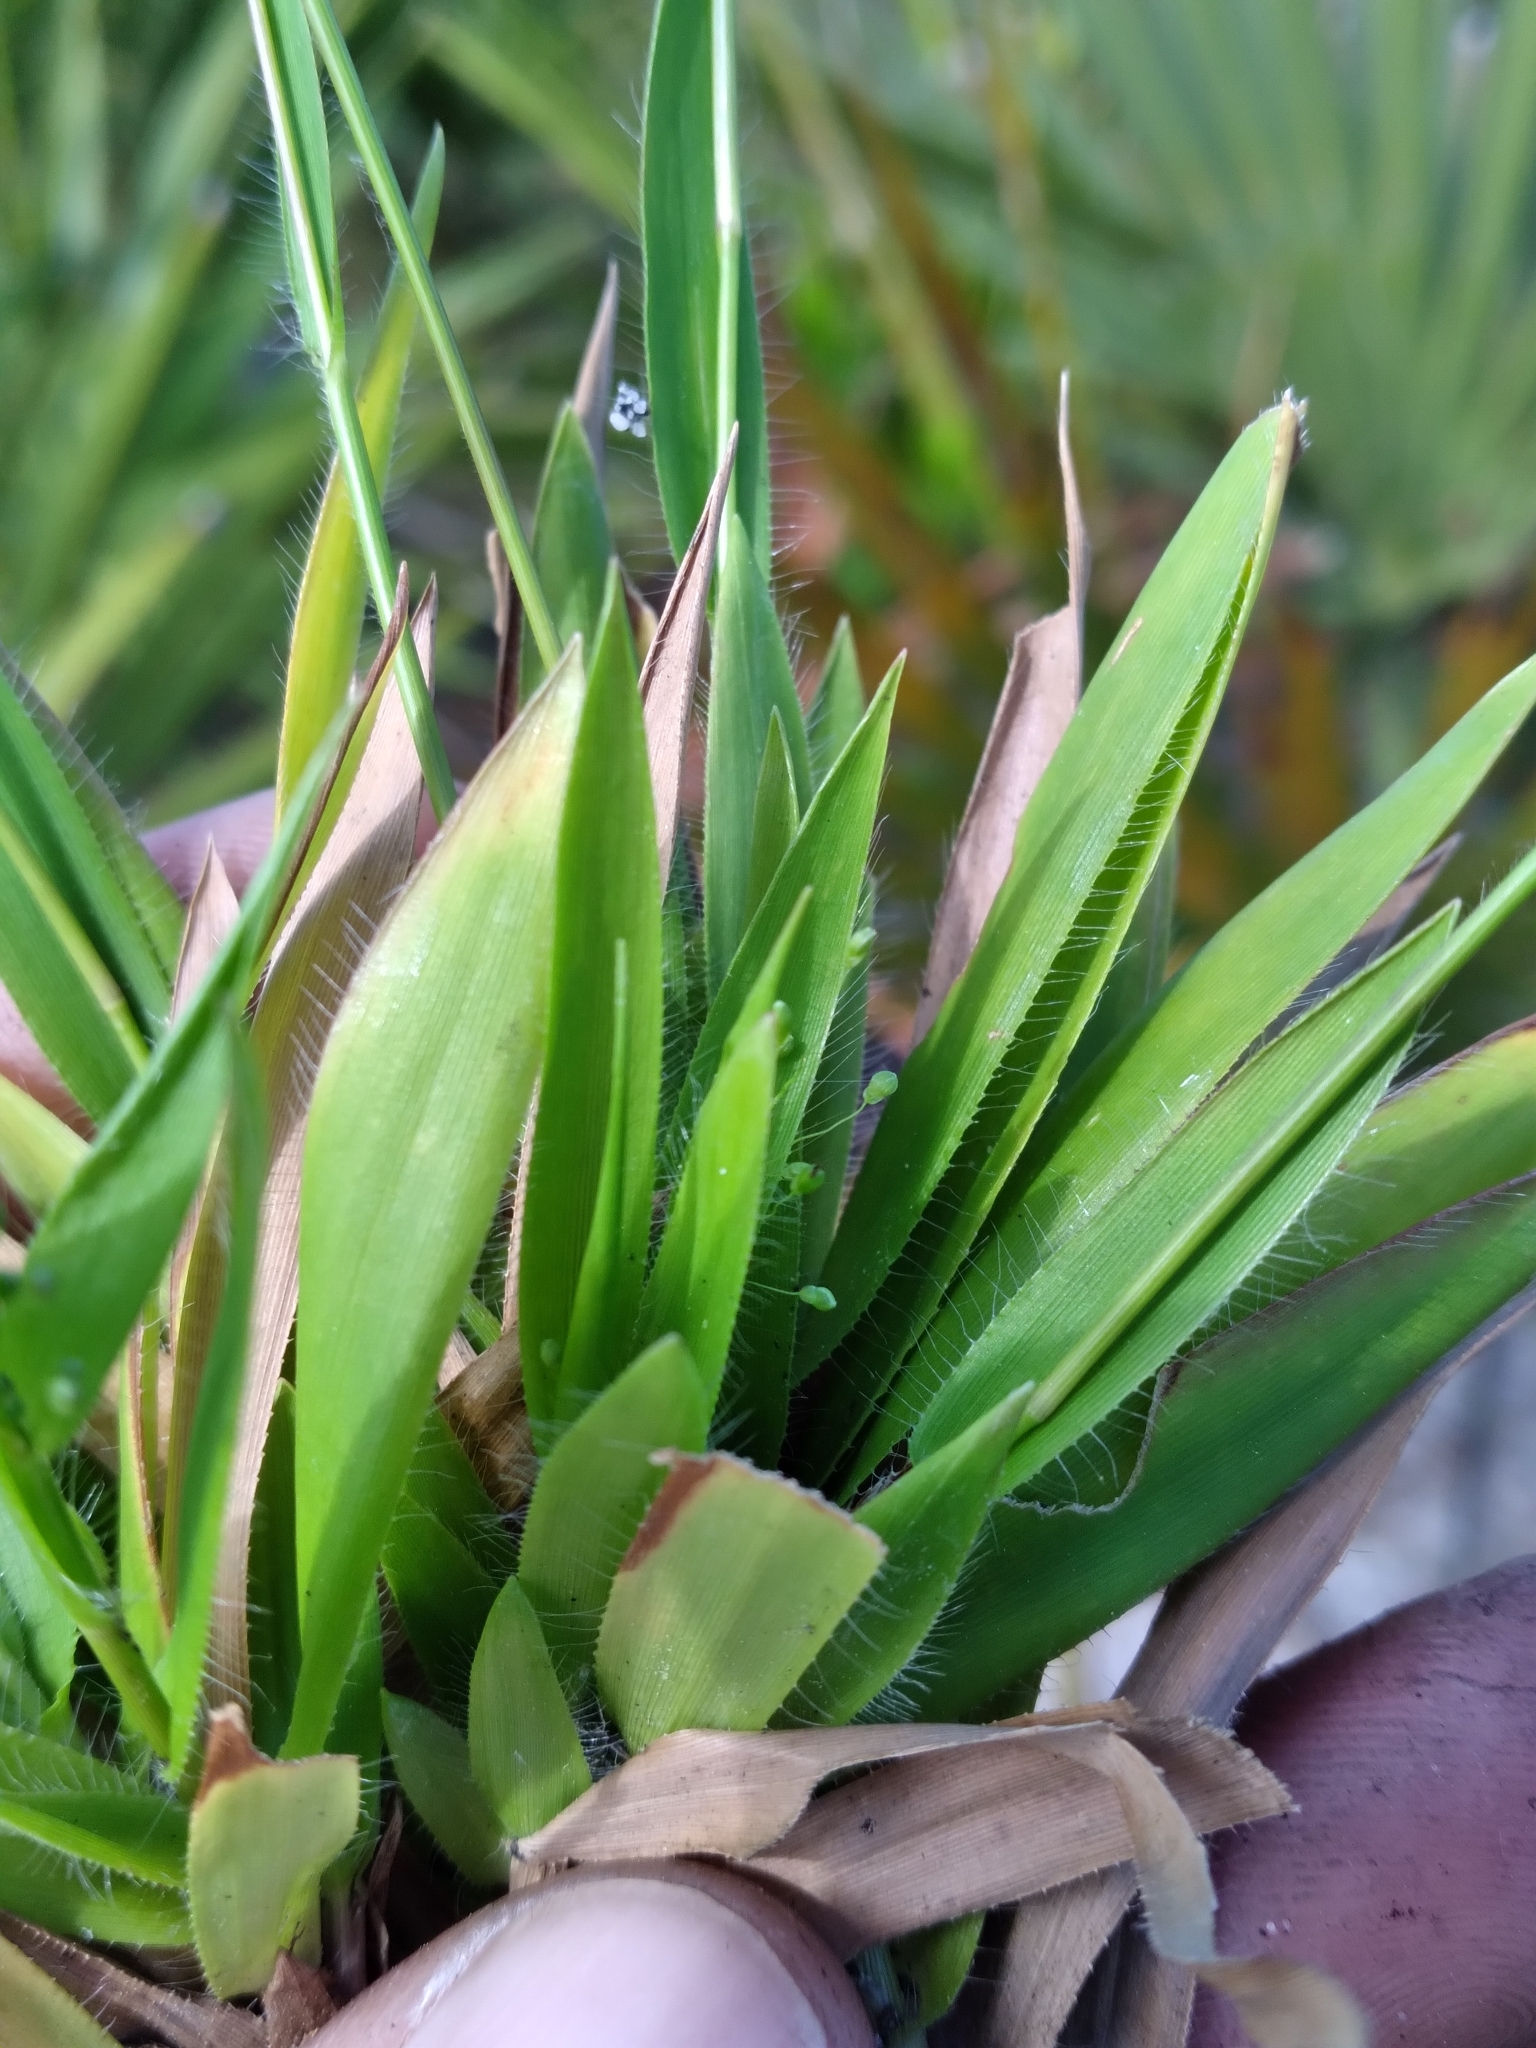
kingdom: Plantae
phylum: Tracheophyta
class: Liliopsida
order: Poales
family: Poaceae
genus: Dichanthelium
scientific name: Dichanthelium strigosum
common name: Cushion-tuft panic grass
